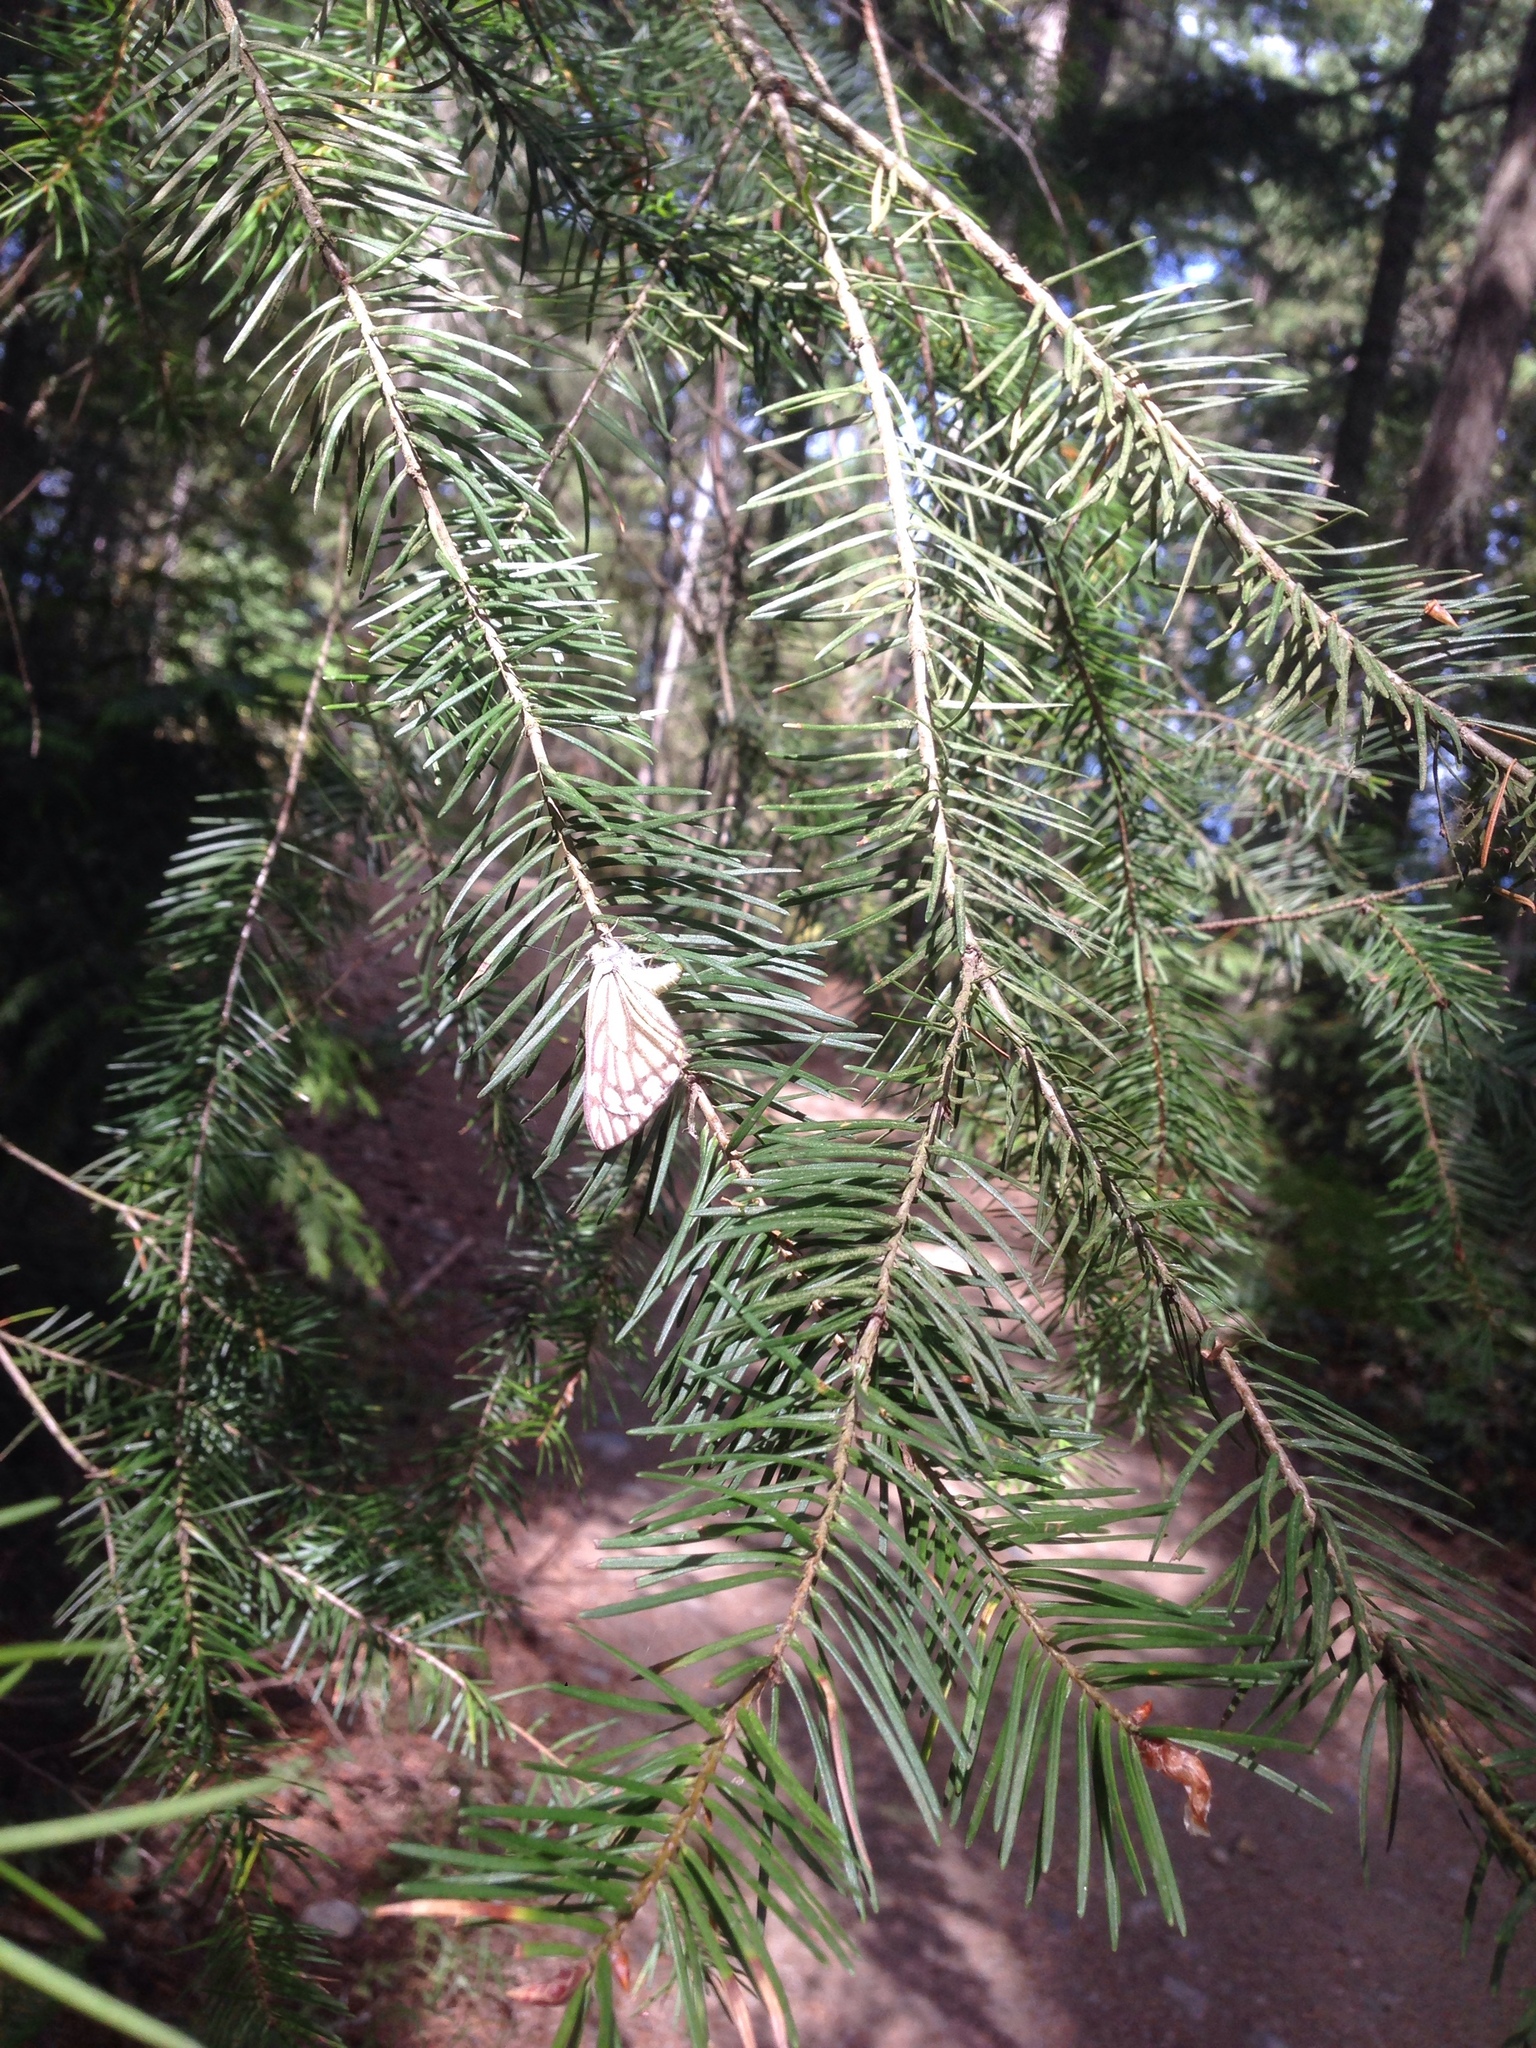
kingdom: Animalia
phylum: Arthropoda
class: Insecta
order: Lepidoptera
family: Pieridae
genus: Neophasia
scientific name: Neophasia menapia
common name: Pine white
